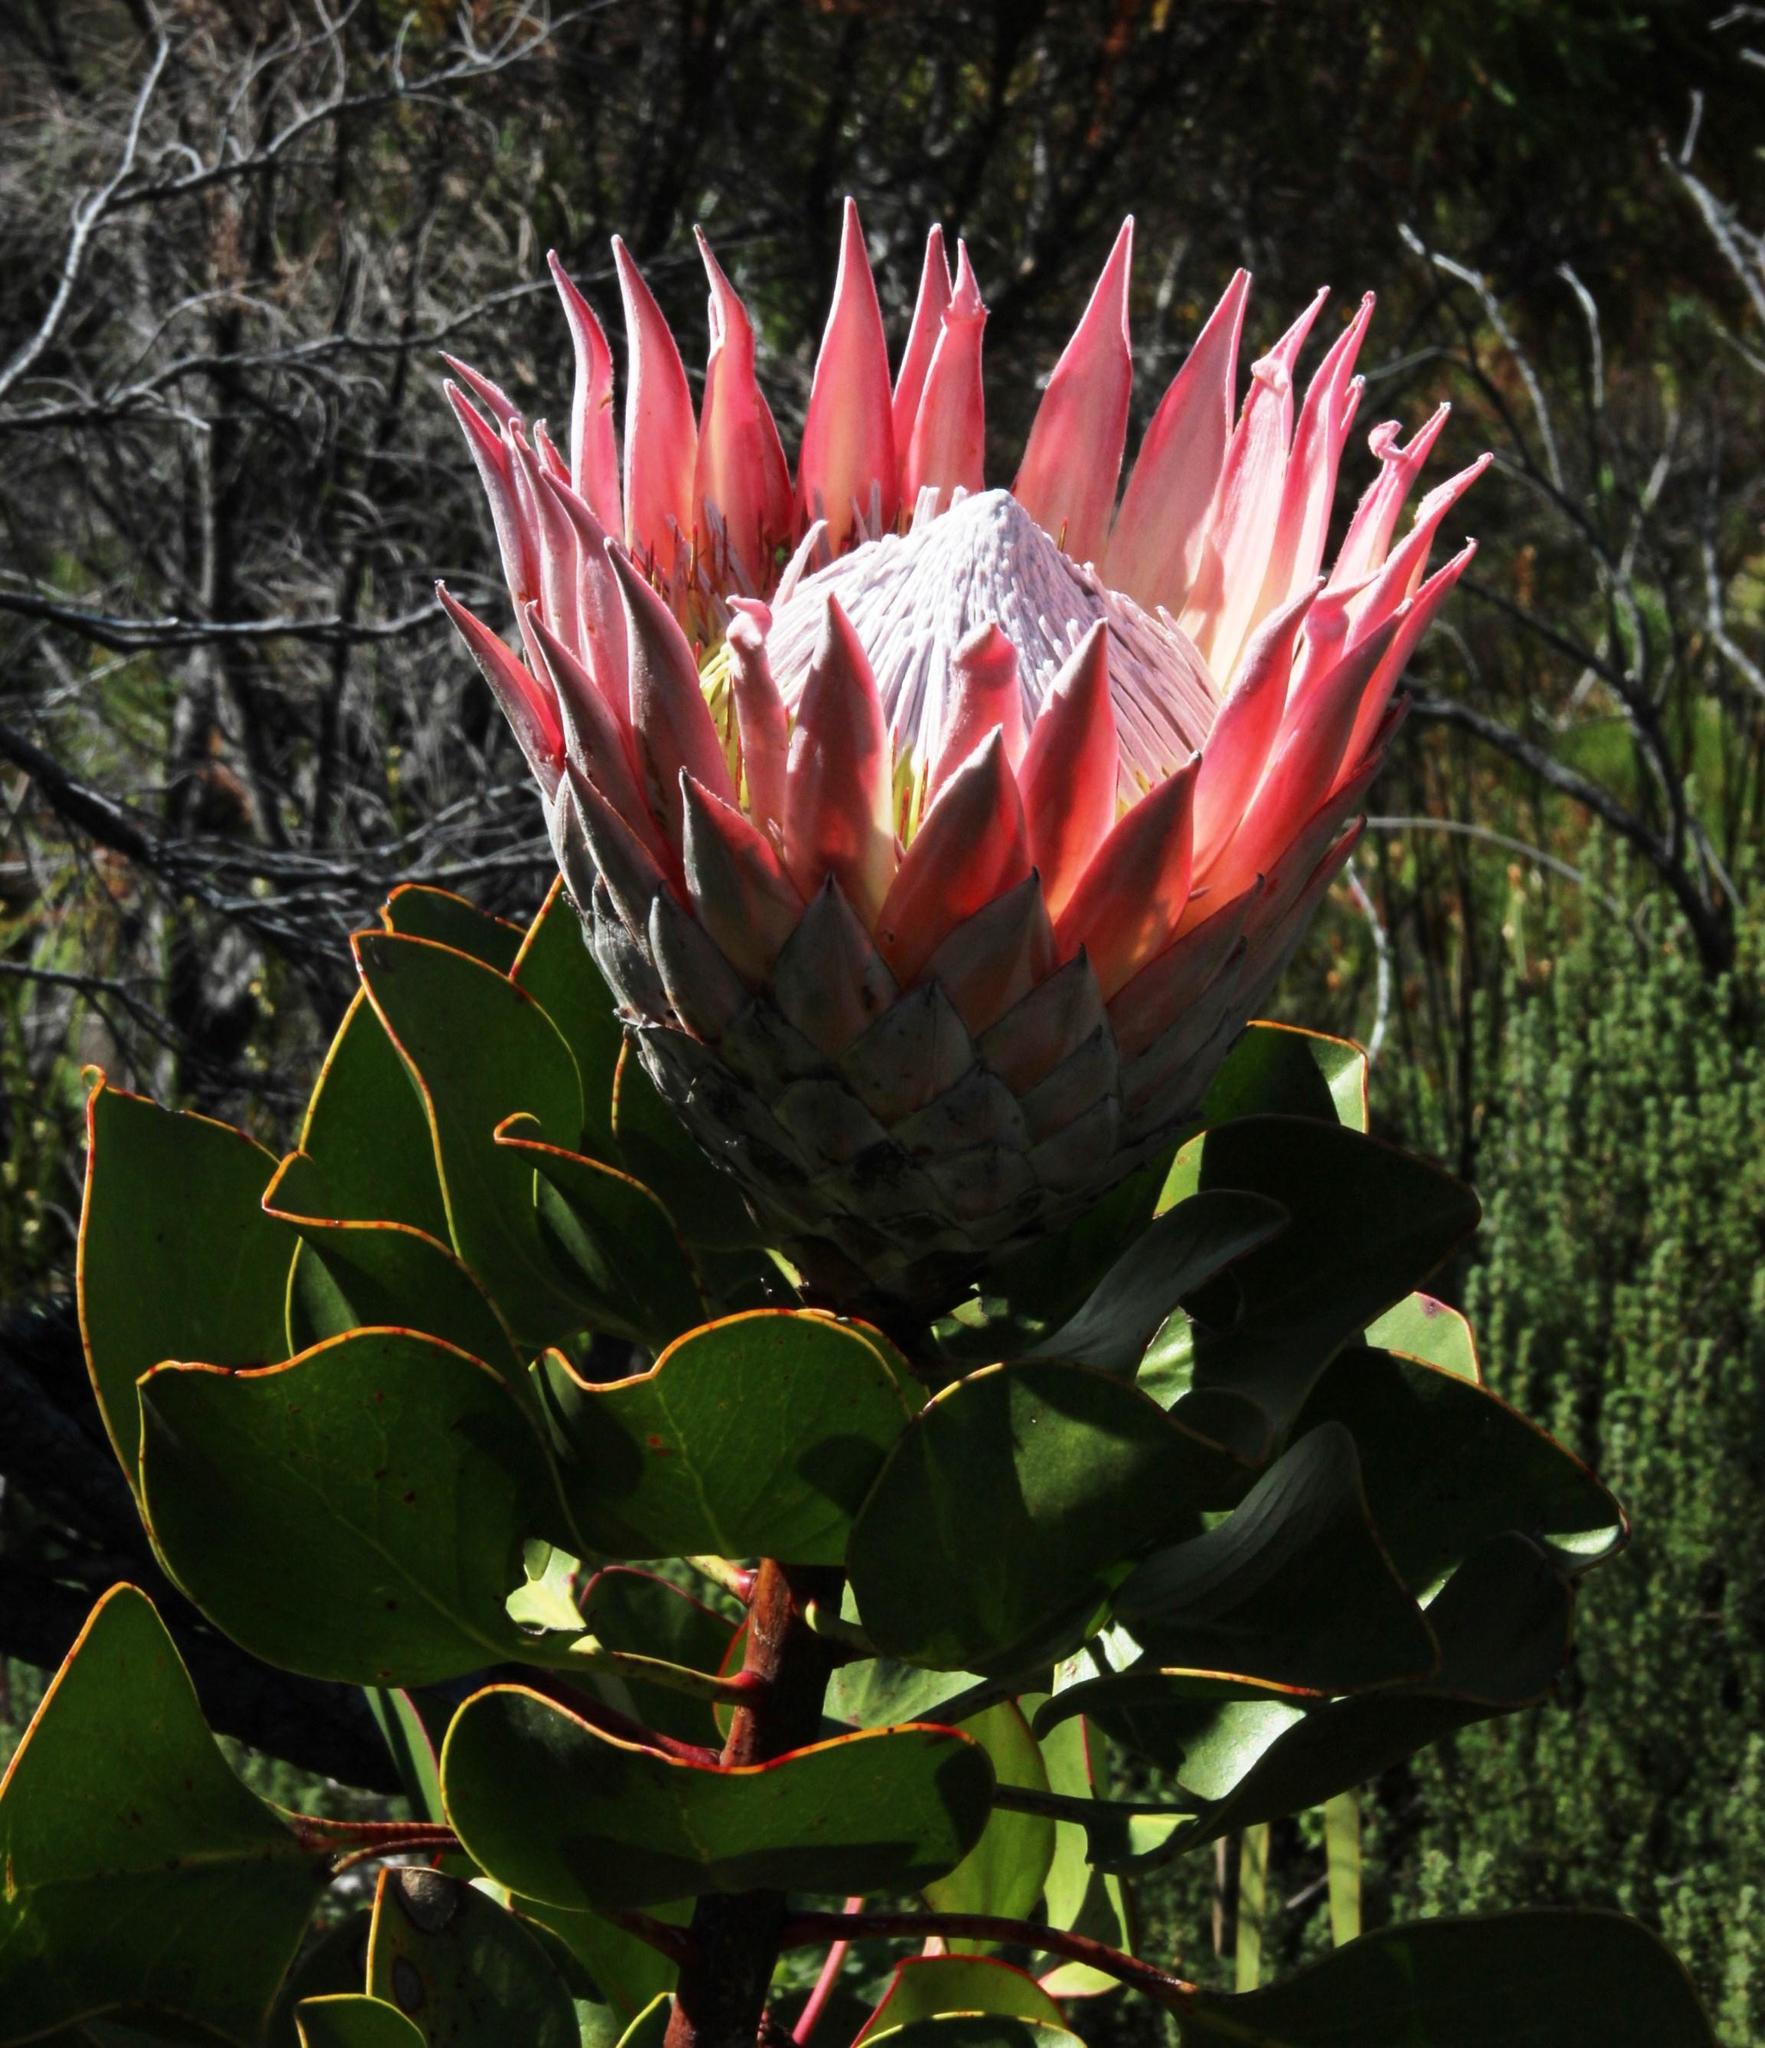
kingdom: Plantae
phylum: Tracheophyta
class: Magnoliopsida
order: Proteales
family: Proteaceae
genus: Protea
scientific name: Protea cynaroides
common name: King protea
